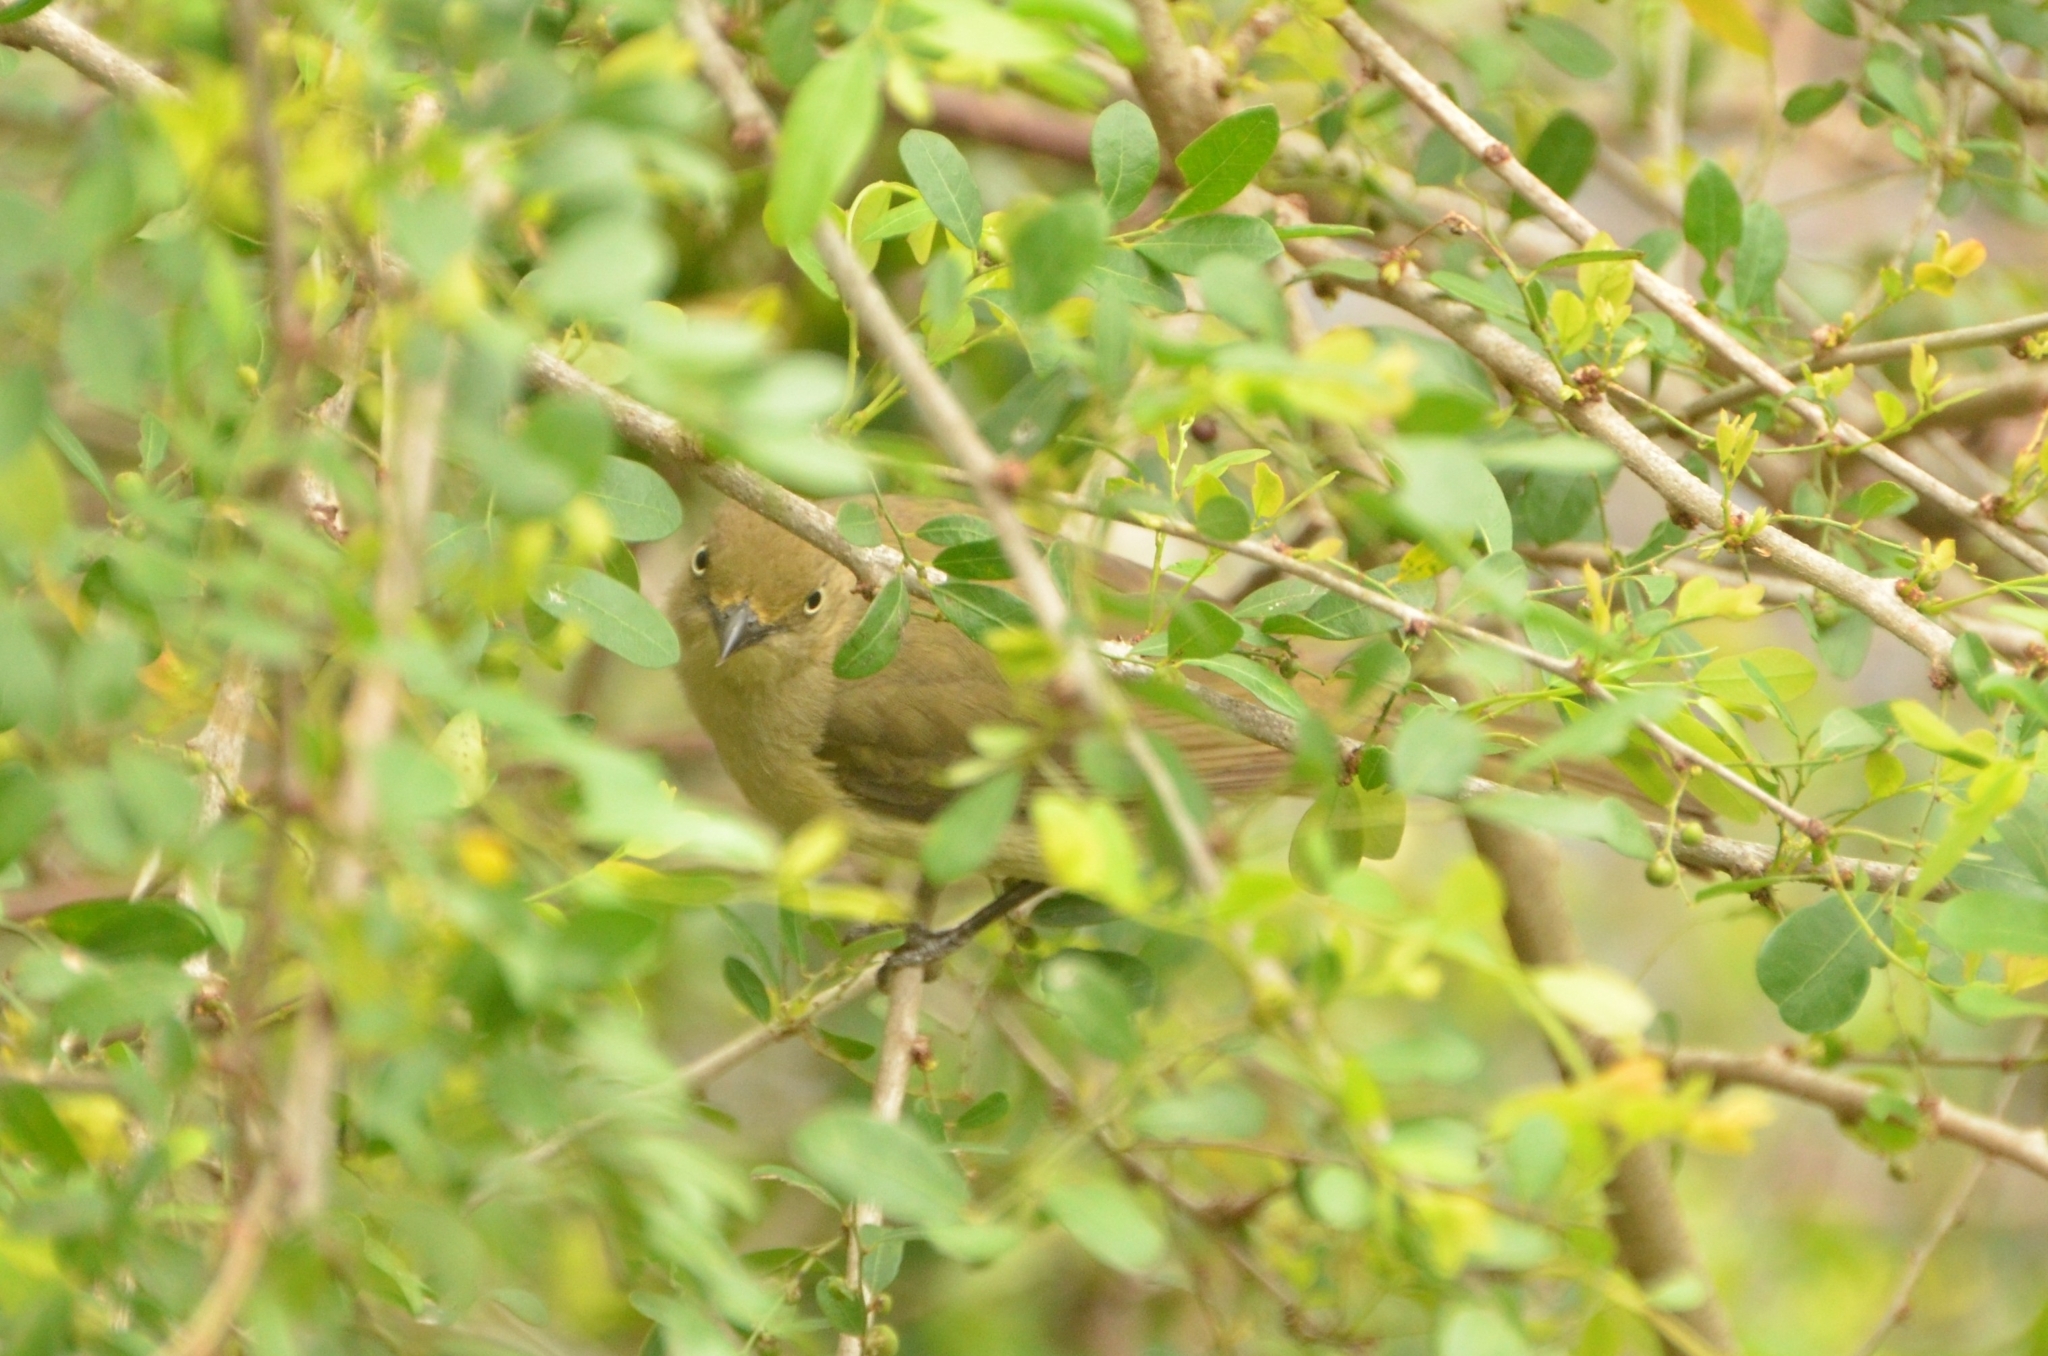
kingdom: Animalia
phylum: Chordata
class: Aves
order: Passeriformes
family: Pycnonotidae
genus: Andropadus
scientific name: Andropadus importunus
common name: Sombre greenbul
